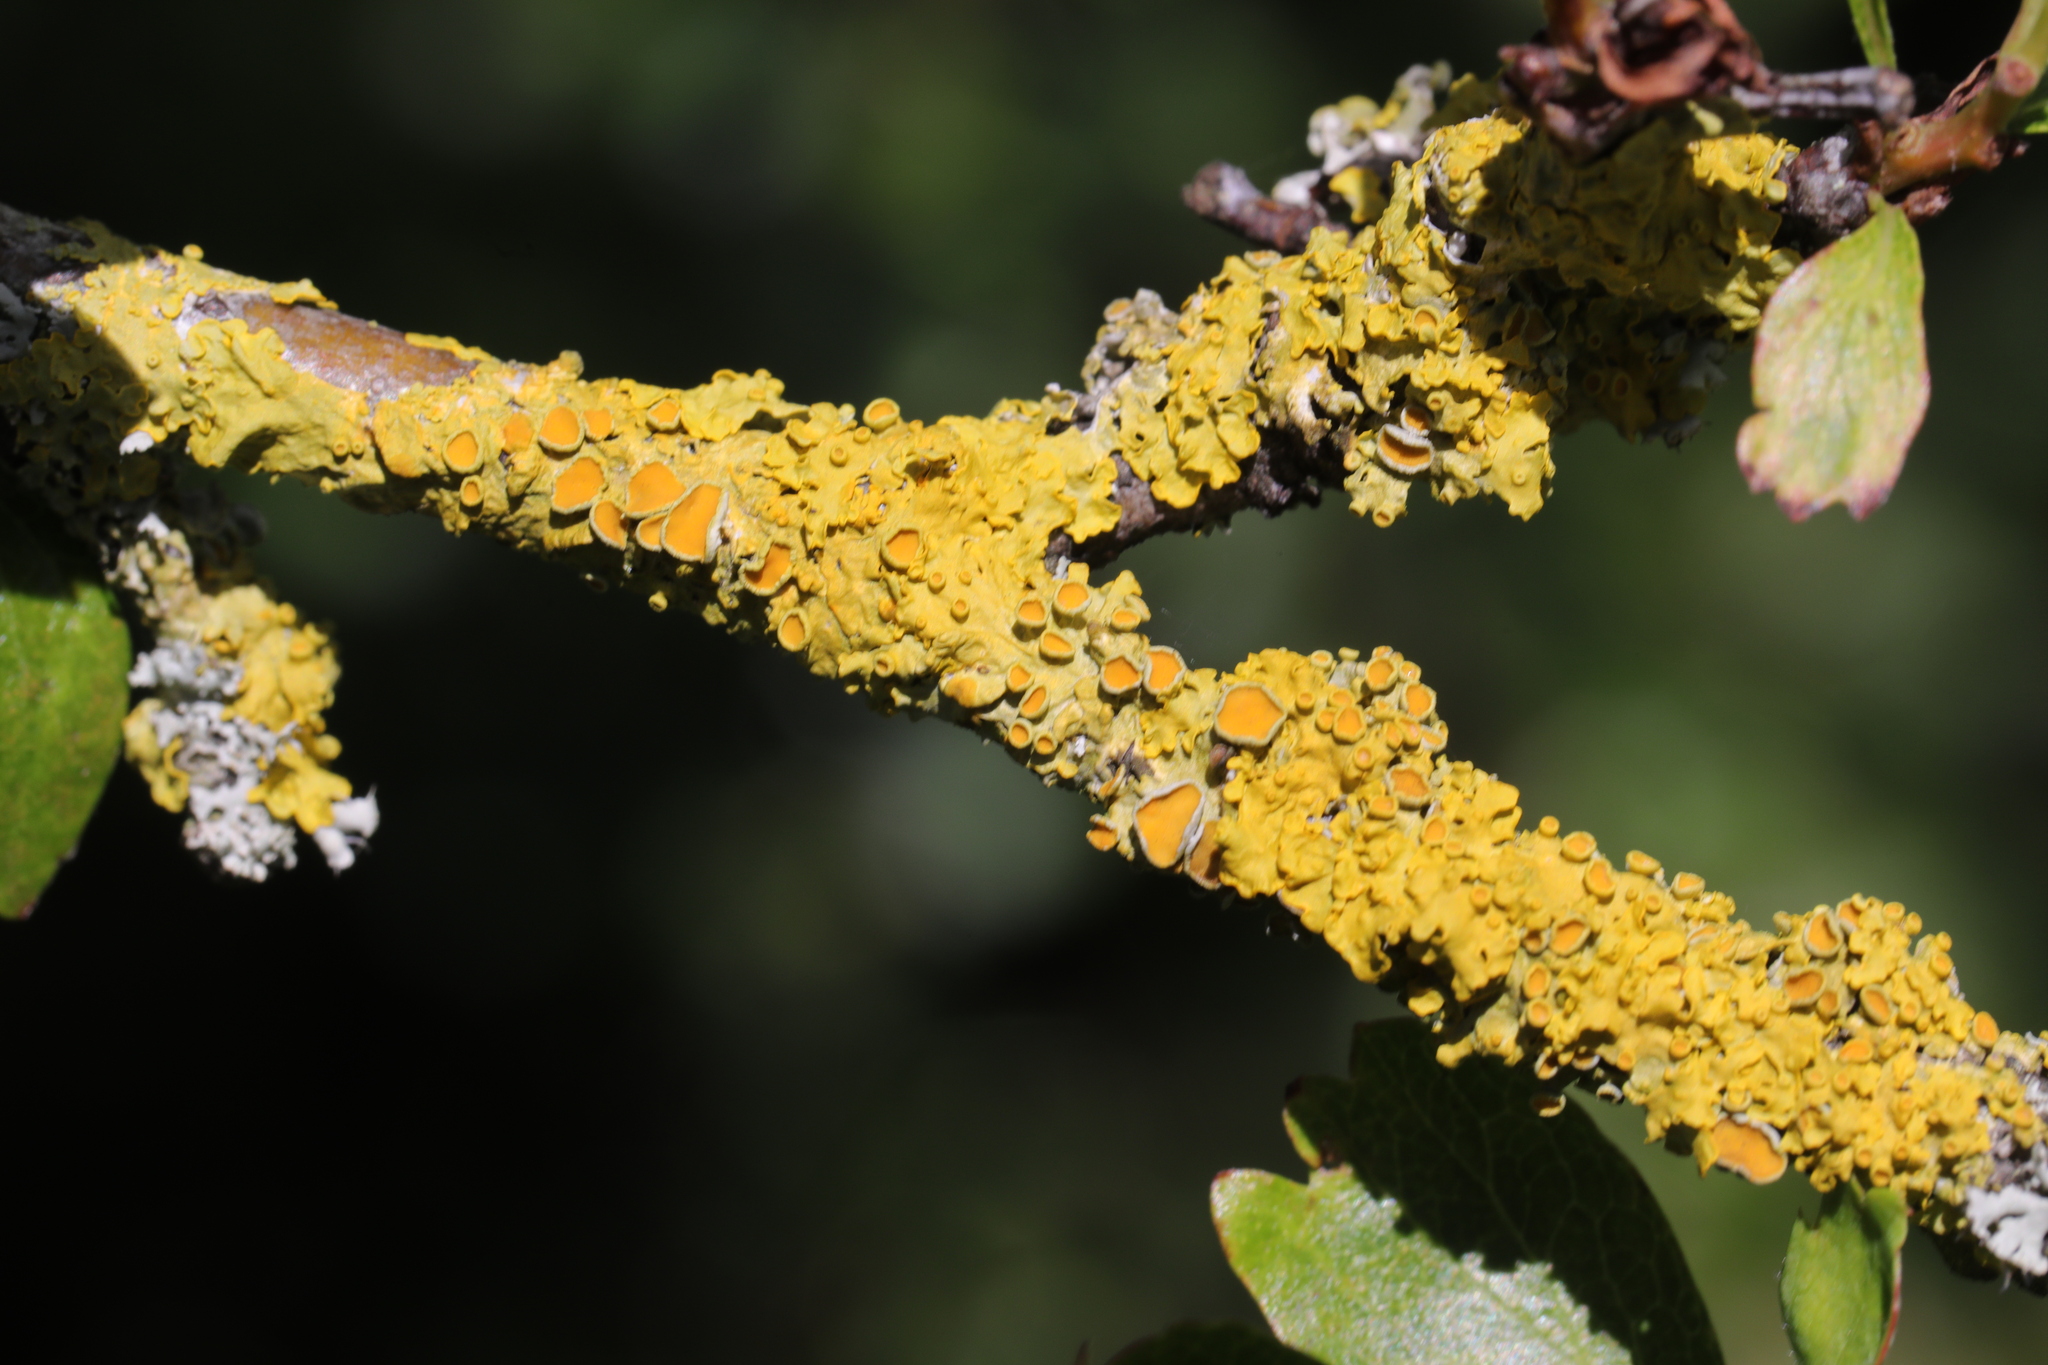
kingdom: Fungi
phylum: Ascomycota
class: Lecanoromycetes
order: Teloschistales
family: Teloschistaceae
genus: Xanthoria
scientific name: Xanthoria parietina
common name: Common orange lichen
